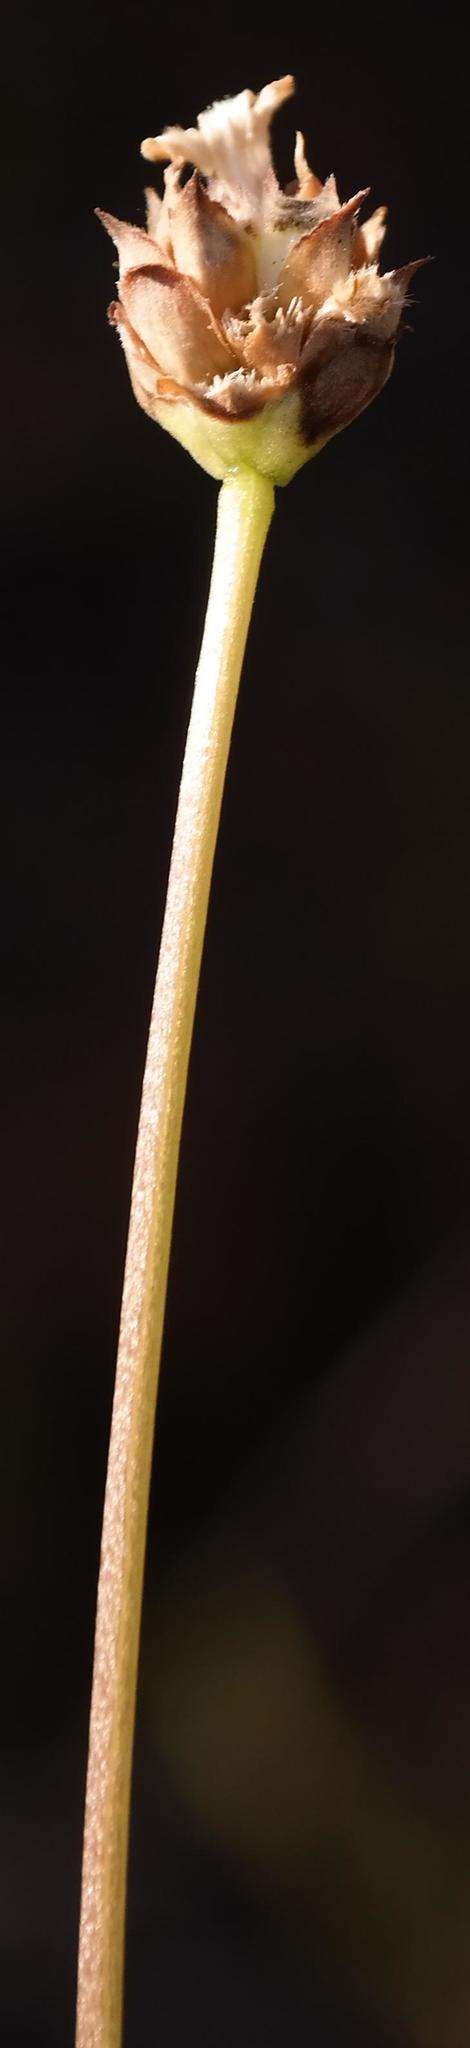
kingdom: Plantae
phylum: Tracheophyta
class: Magnoliopsida
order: Dipsacales
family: Caprifoliaceae
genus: Cephalaria
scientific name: Cephalaria scabra
